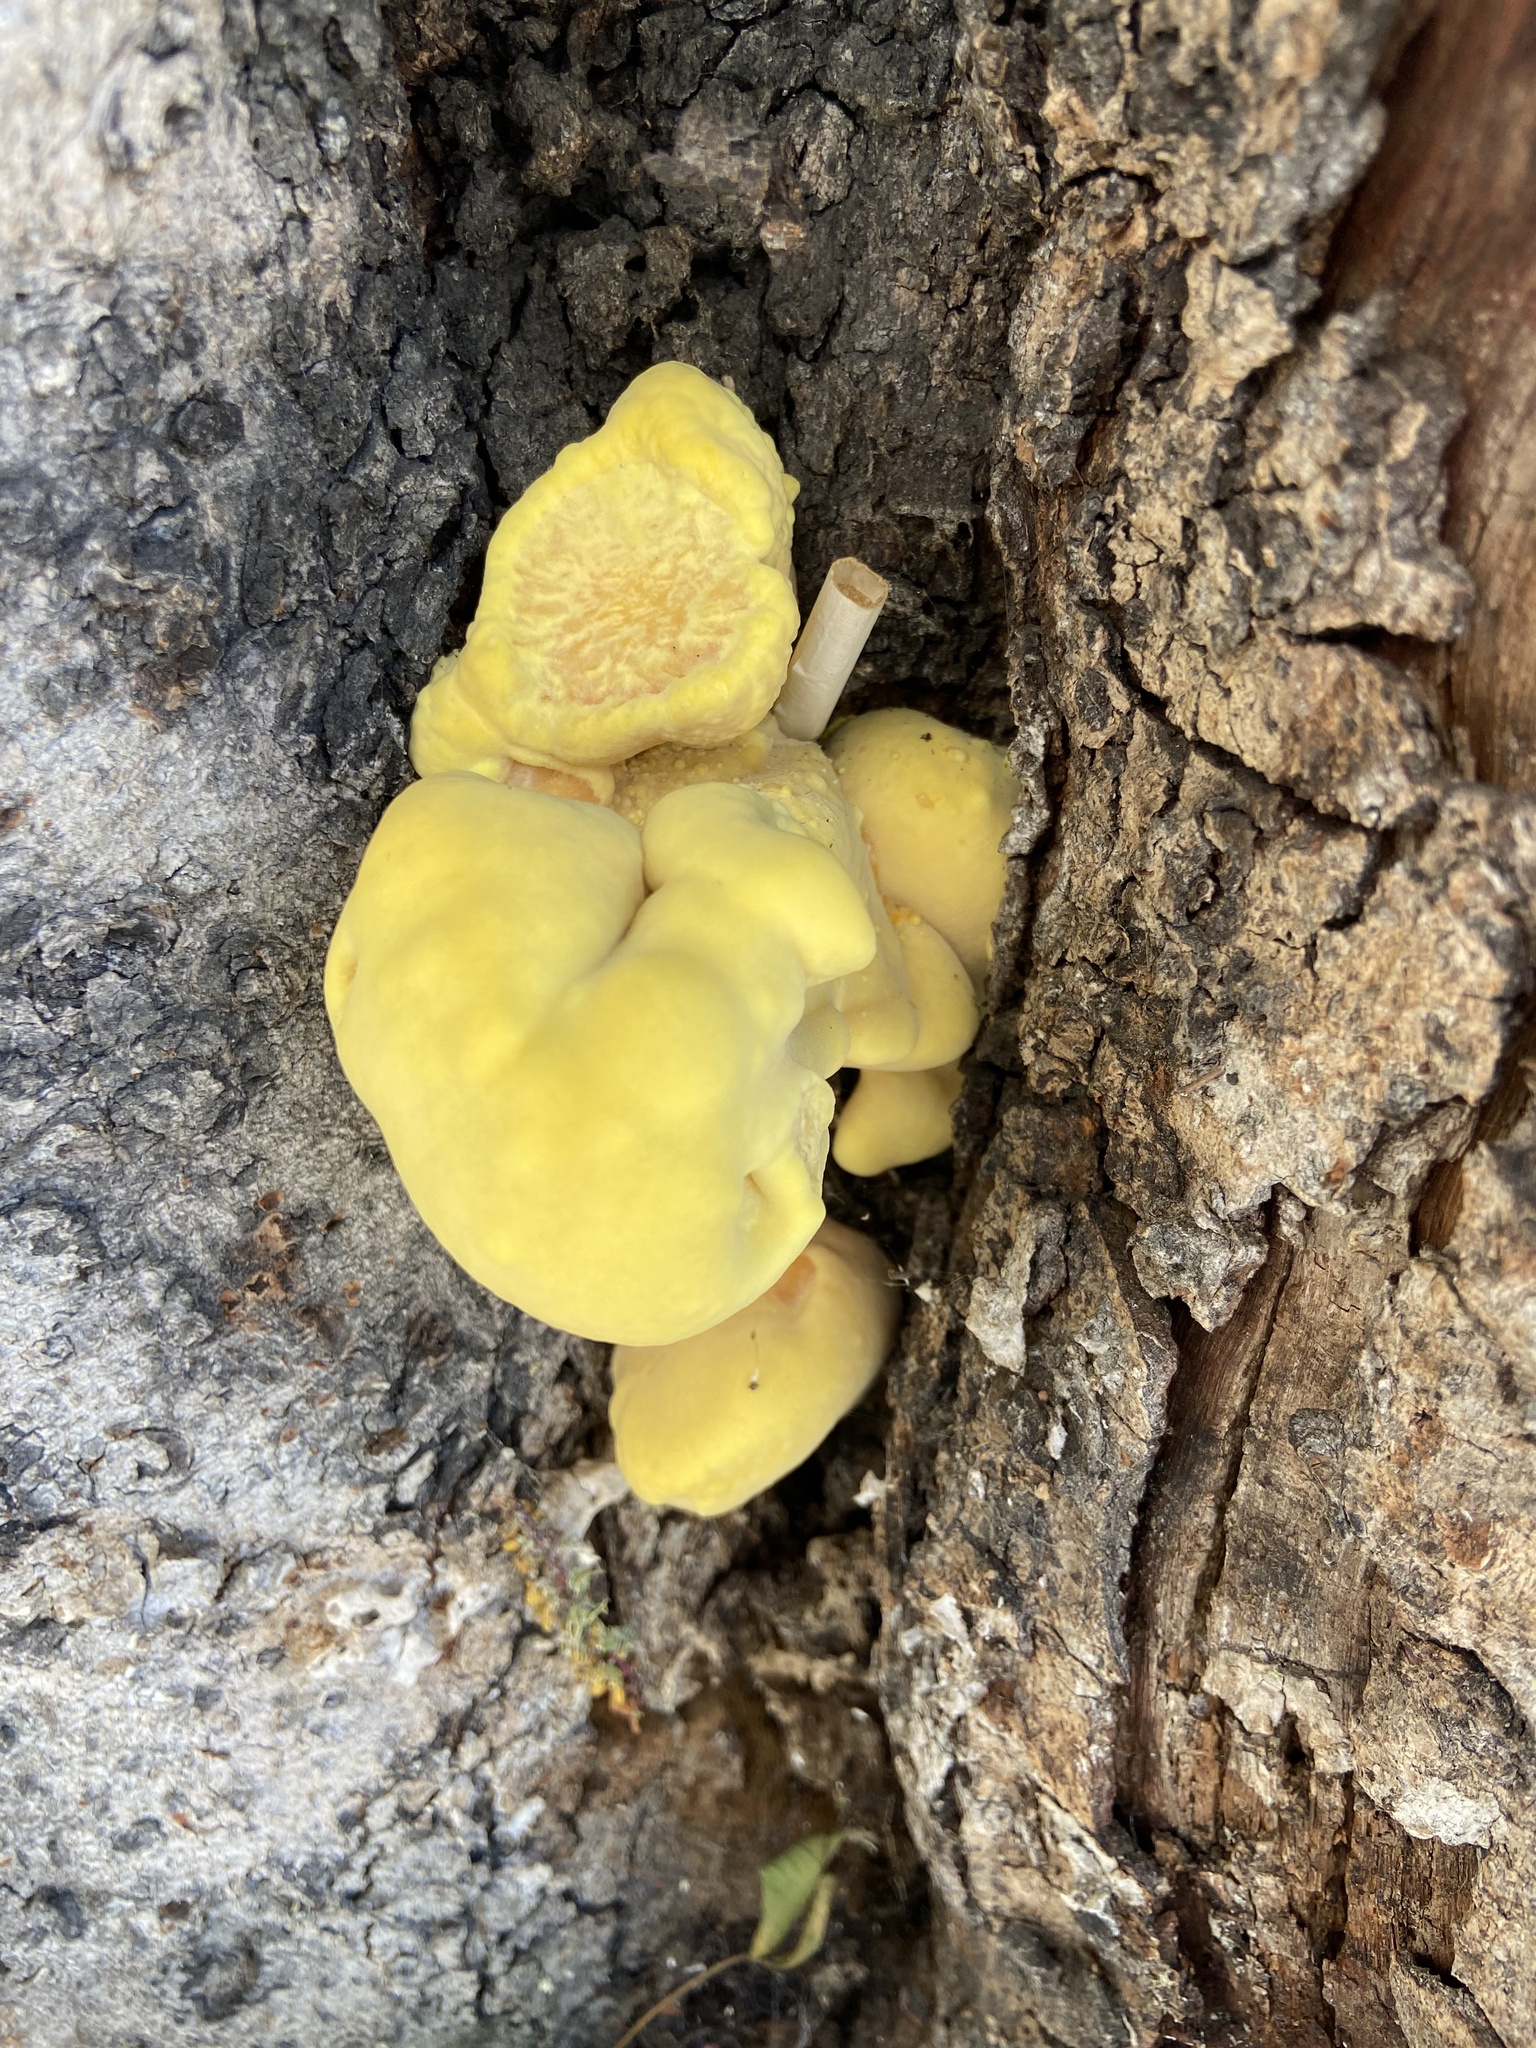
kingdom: Fungi
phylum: Basidiomycota
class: Agaricomycetes
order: Polyporales
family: Laetiporaceae
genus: Laetiporus
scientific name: Laetiporus gilbertsonii
